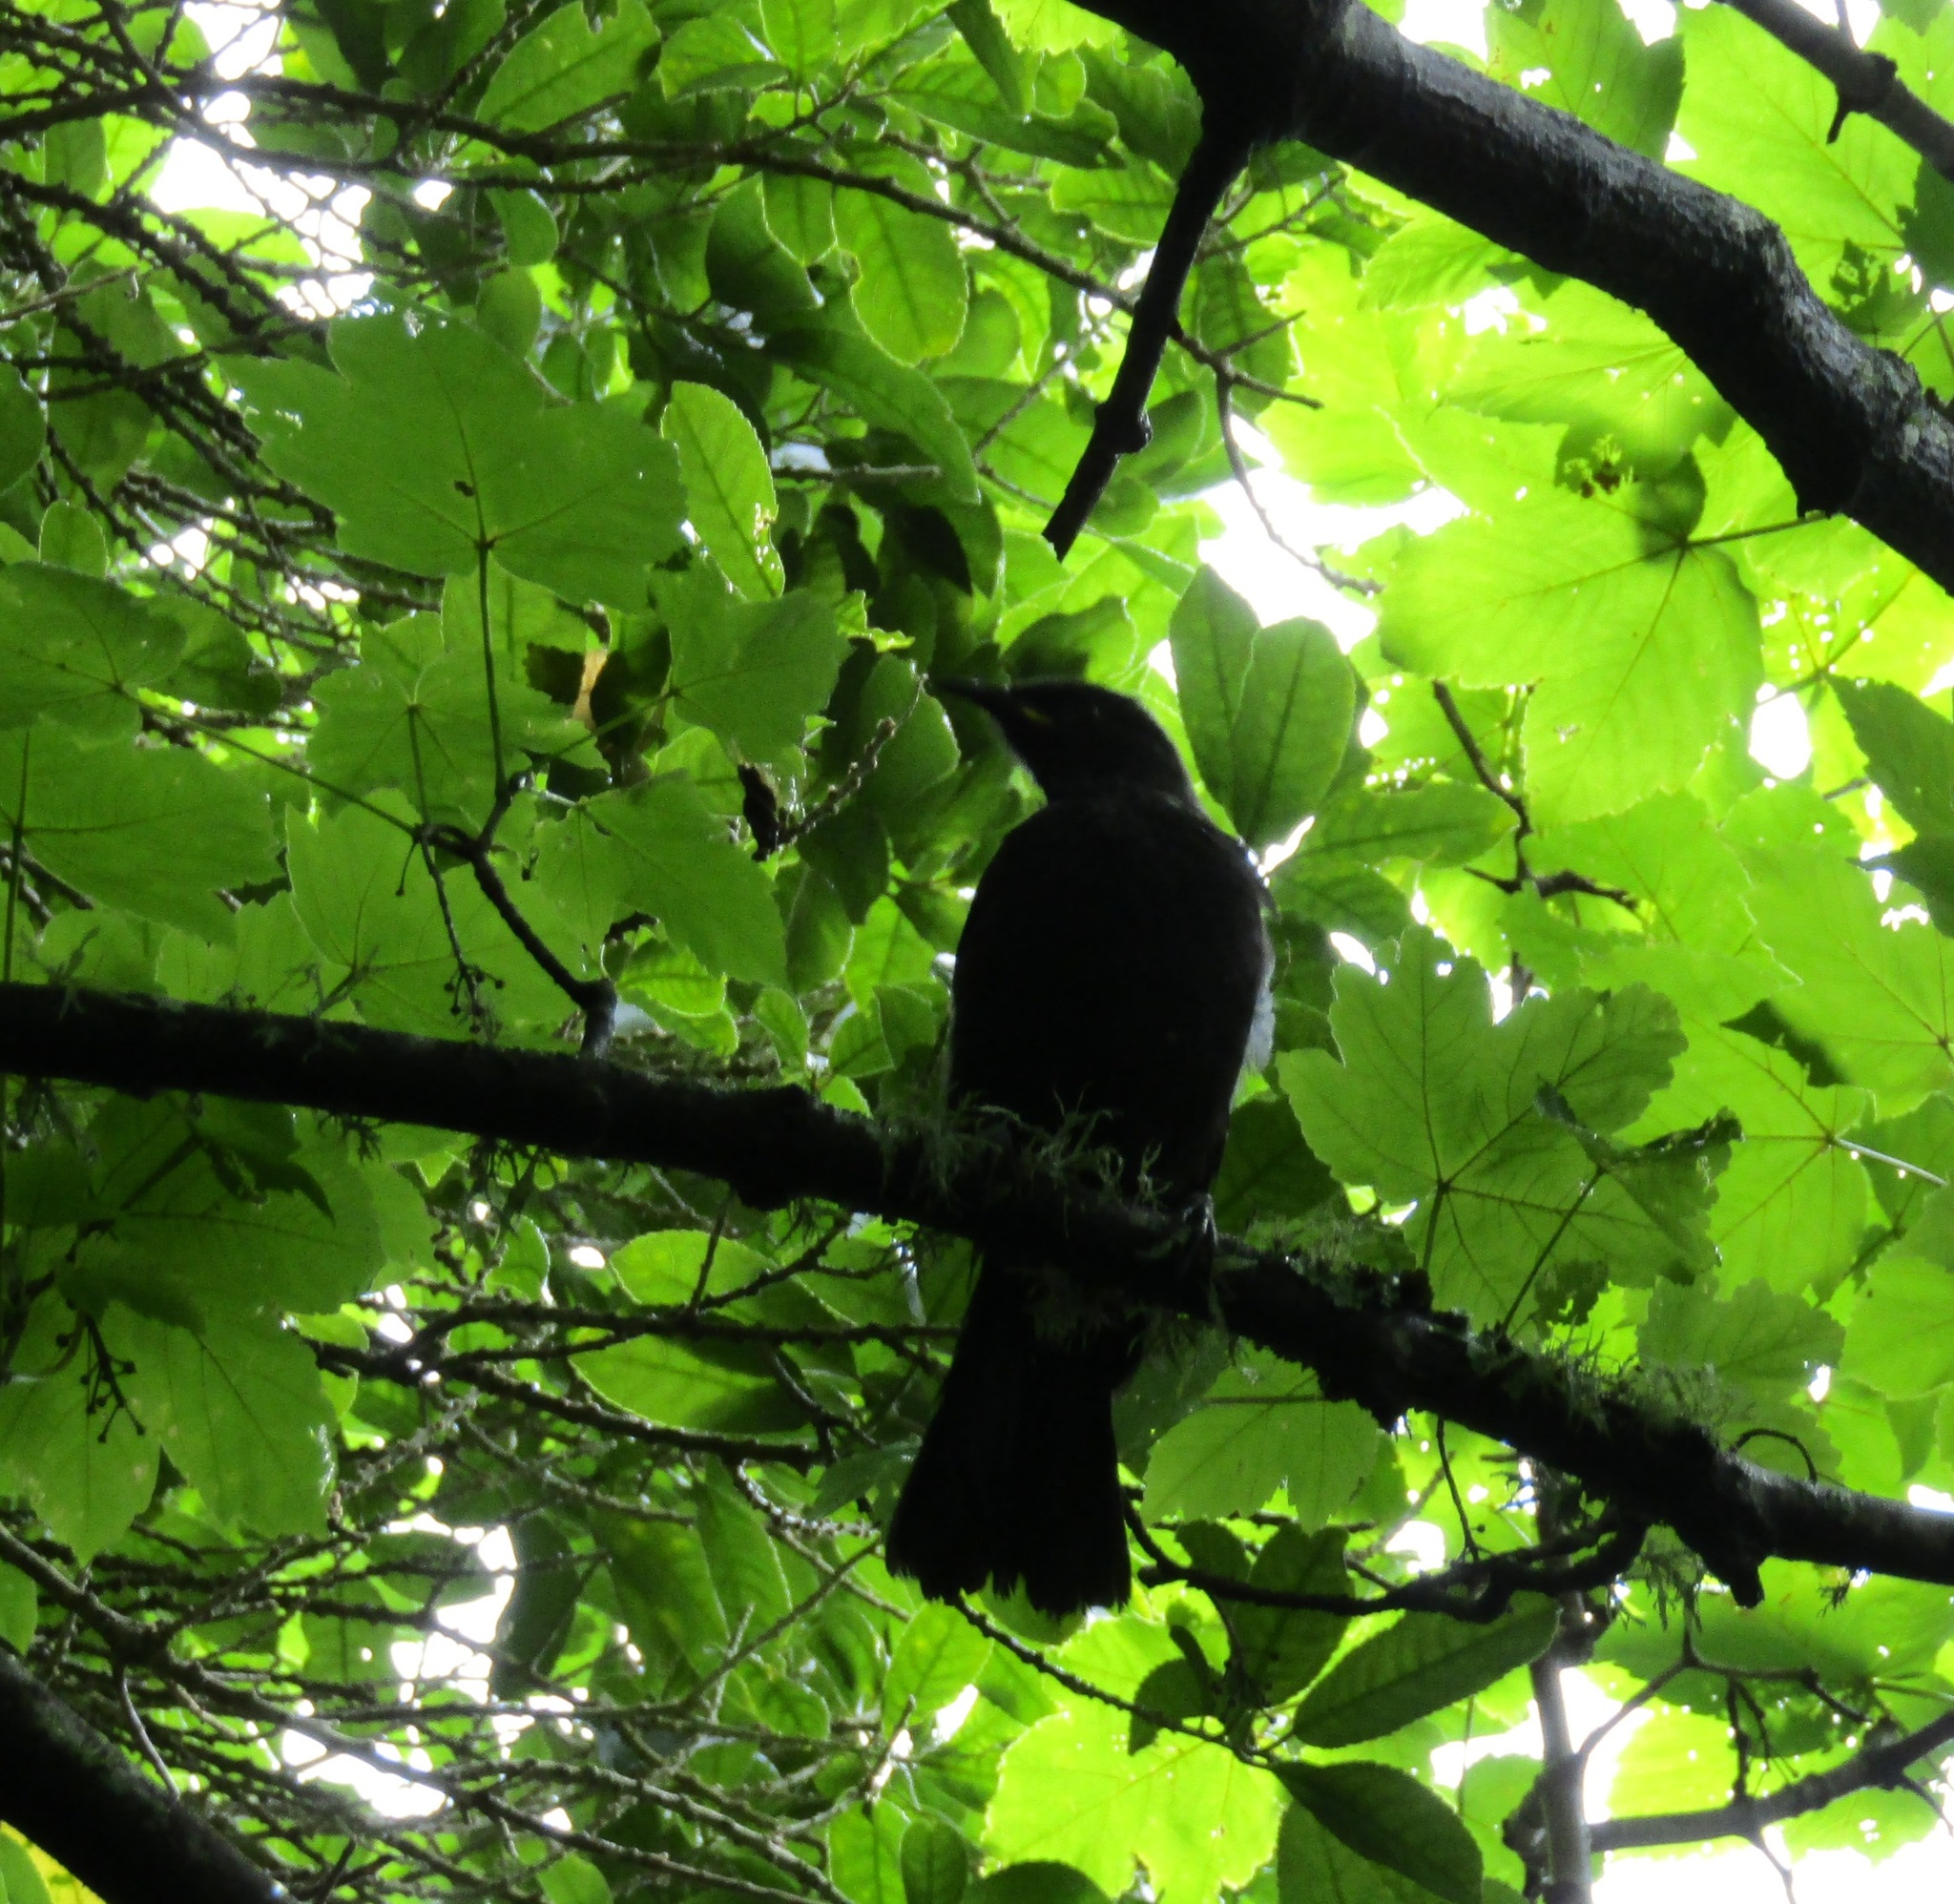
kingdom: Animalia
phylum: Chordata
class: Aves
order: Passeriformes
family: Meliphagidae
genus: Prosthemadera
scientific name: Prosthemadera novaeseelandiae
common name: Tui
